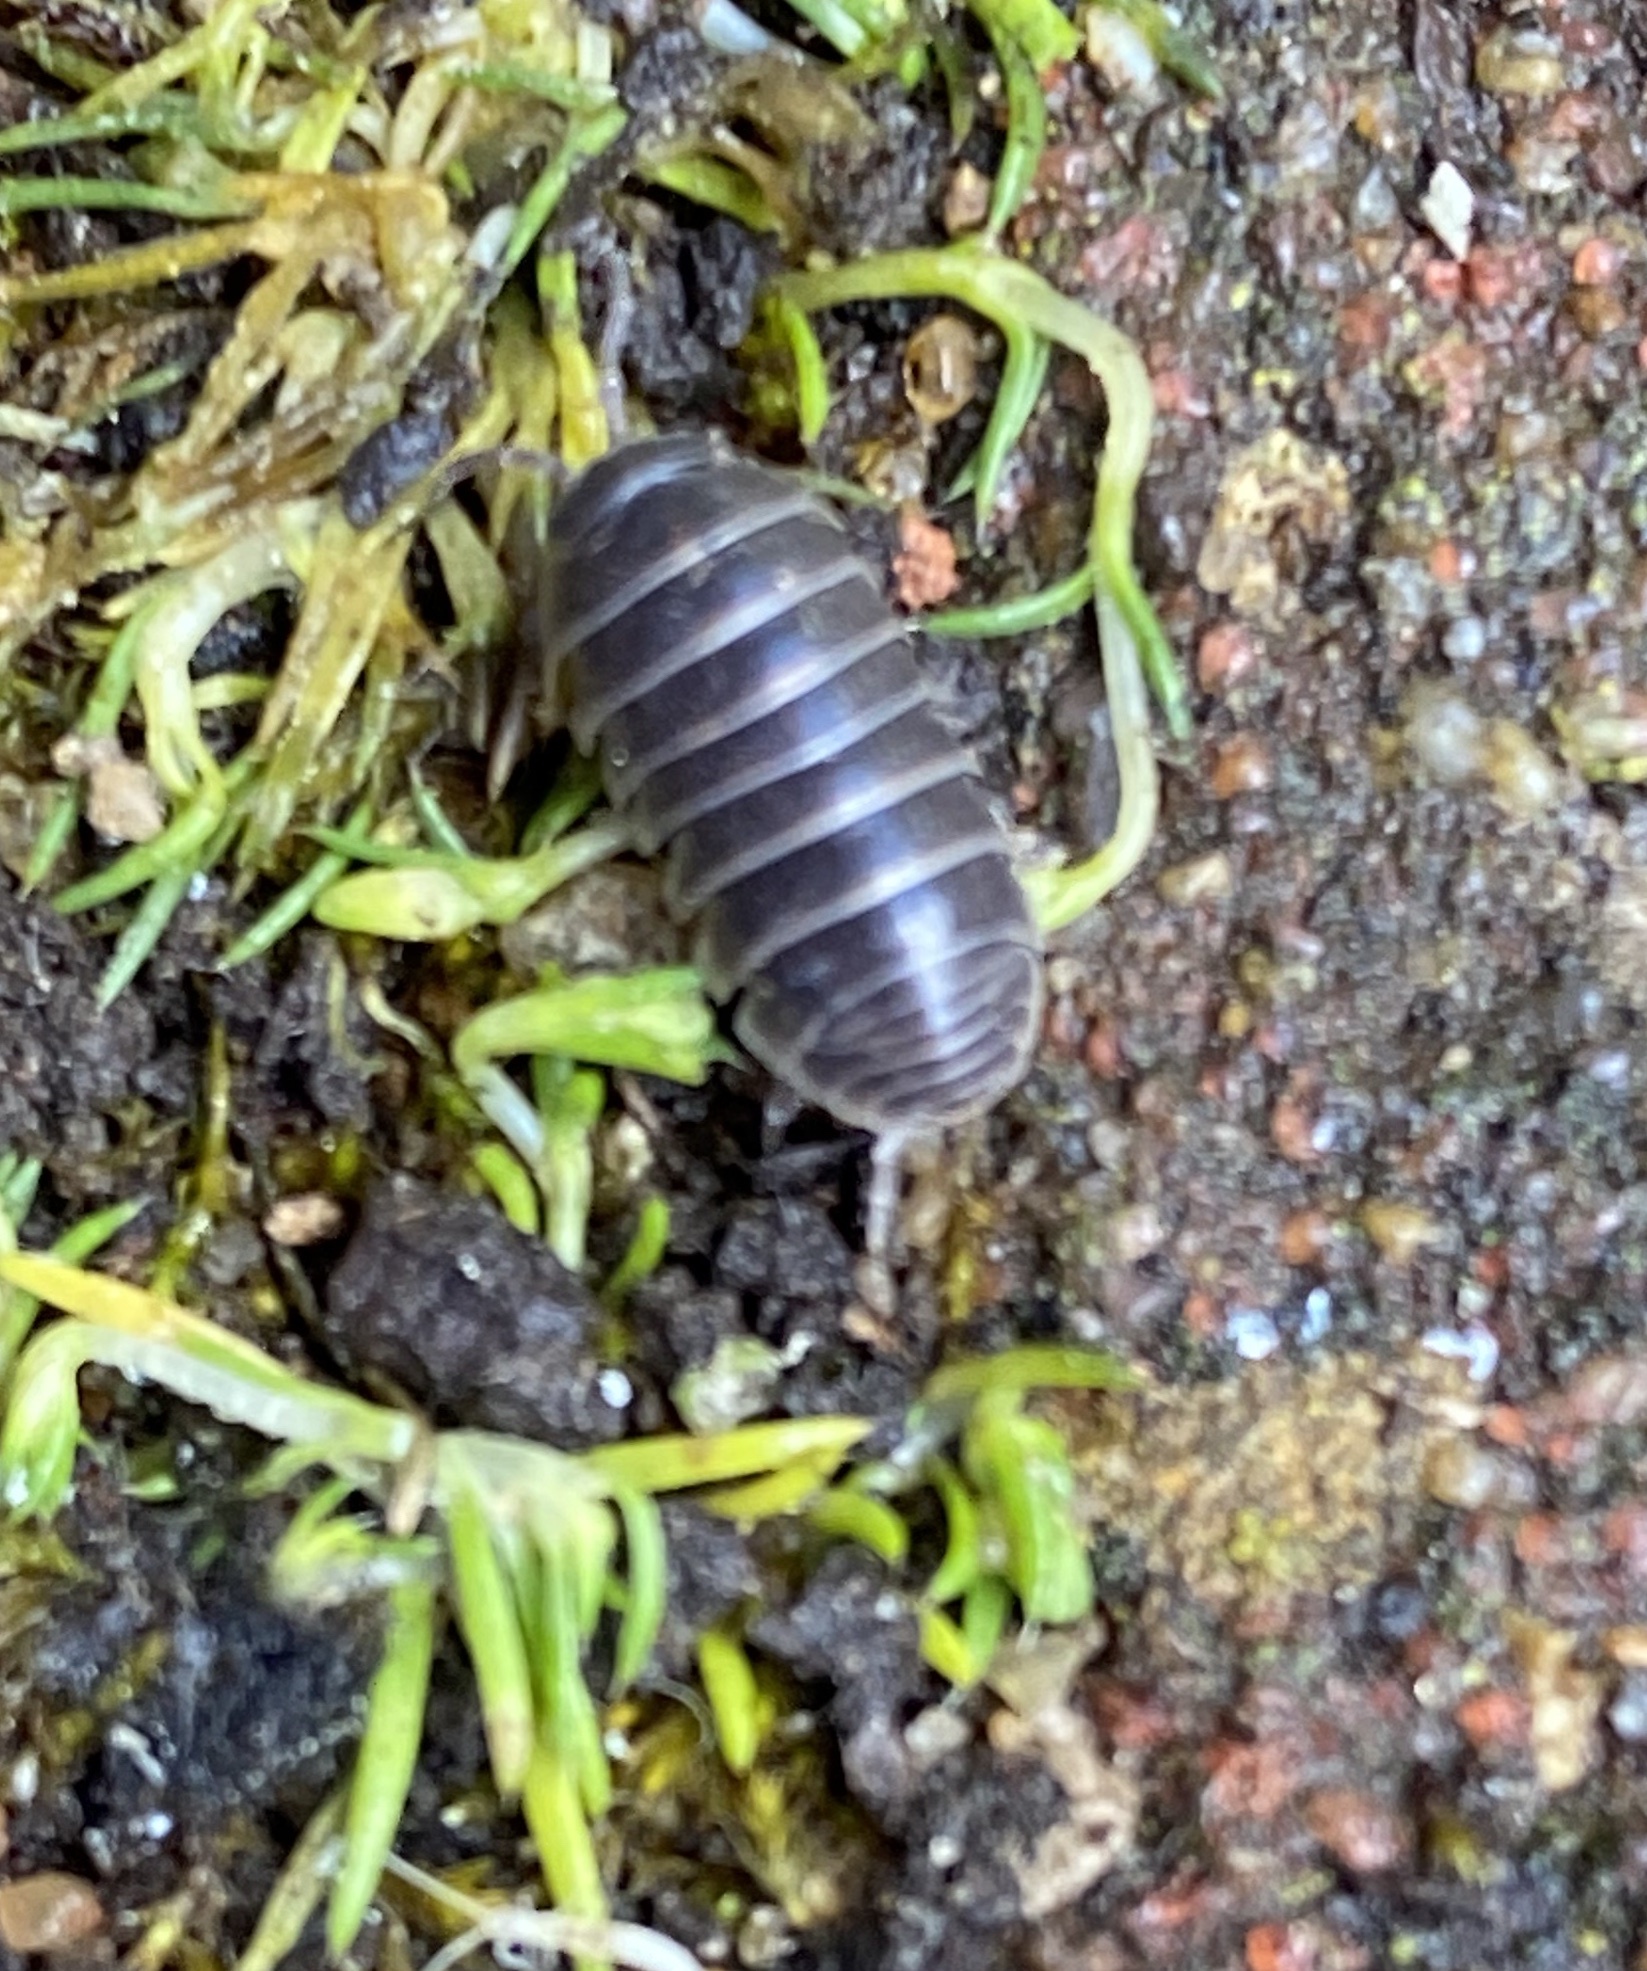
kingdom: Animalia
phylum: Arthropoda
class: Malacostraca
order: Isopoda
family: Armadillidiidae
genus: Armadillidium
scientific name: Armadillidium vulgare
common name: Common pill woodlouse
